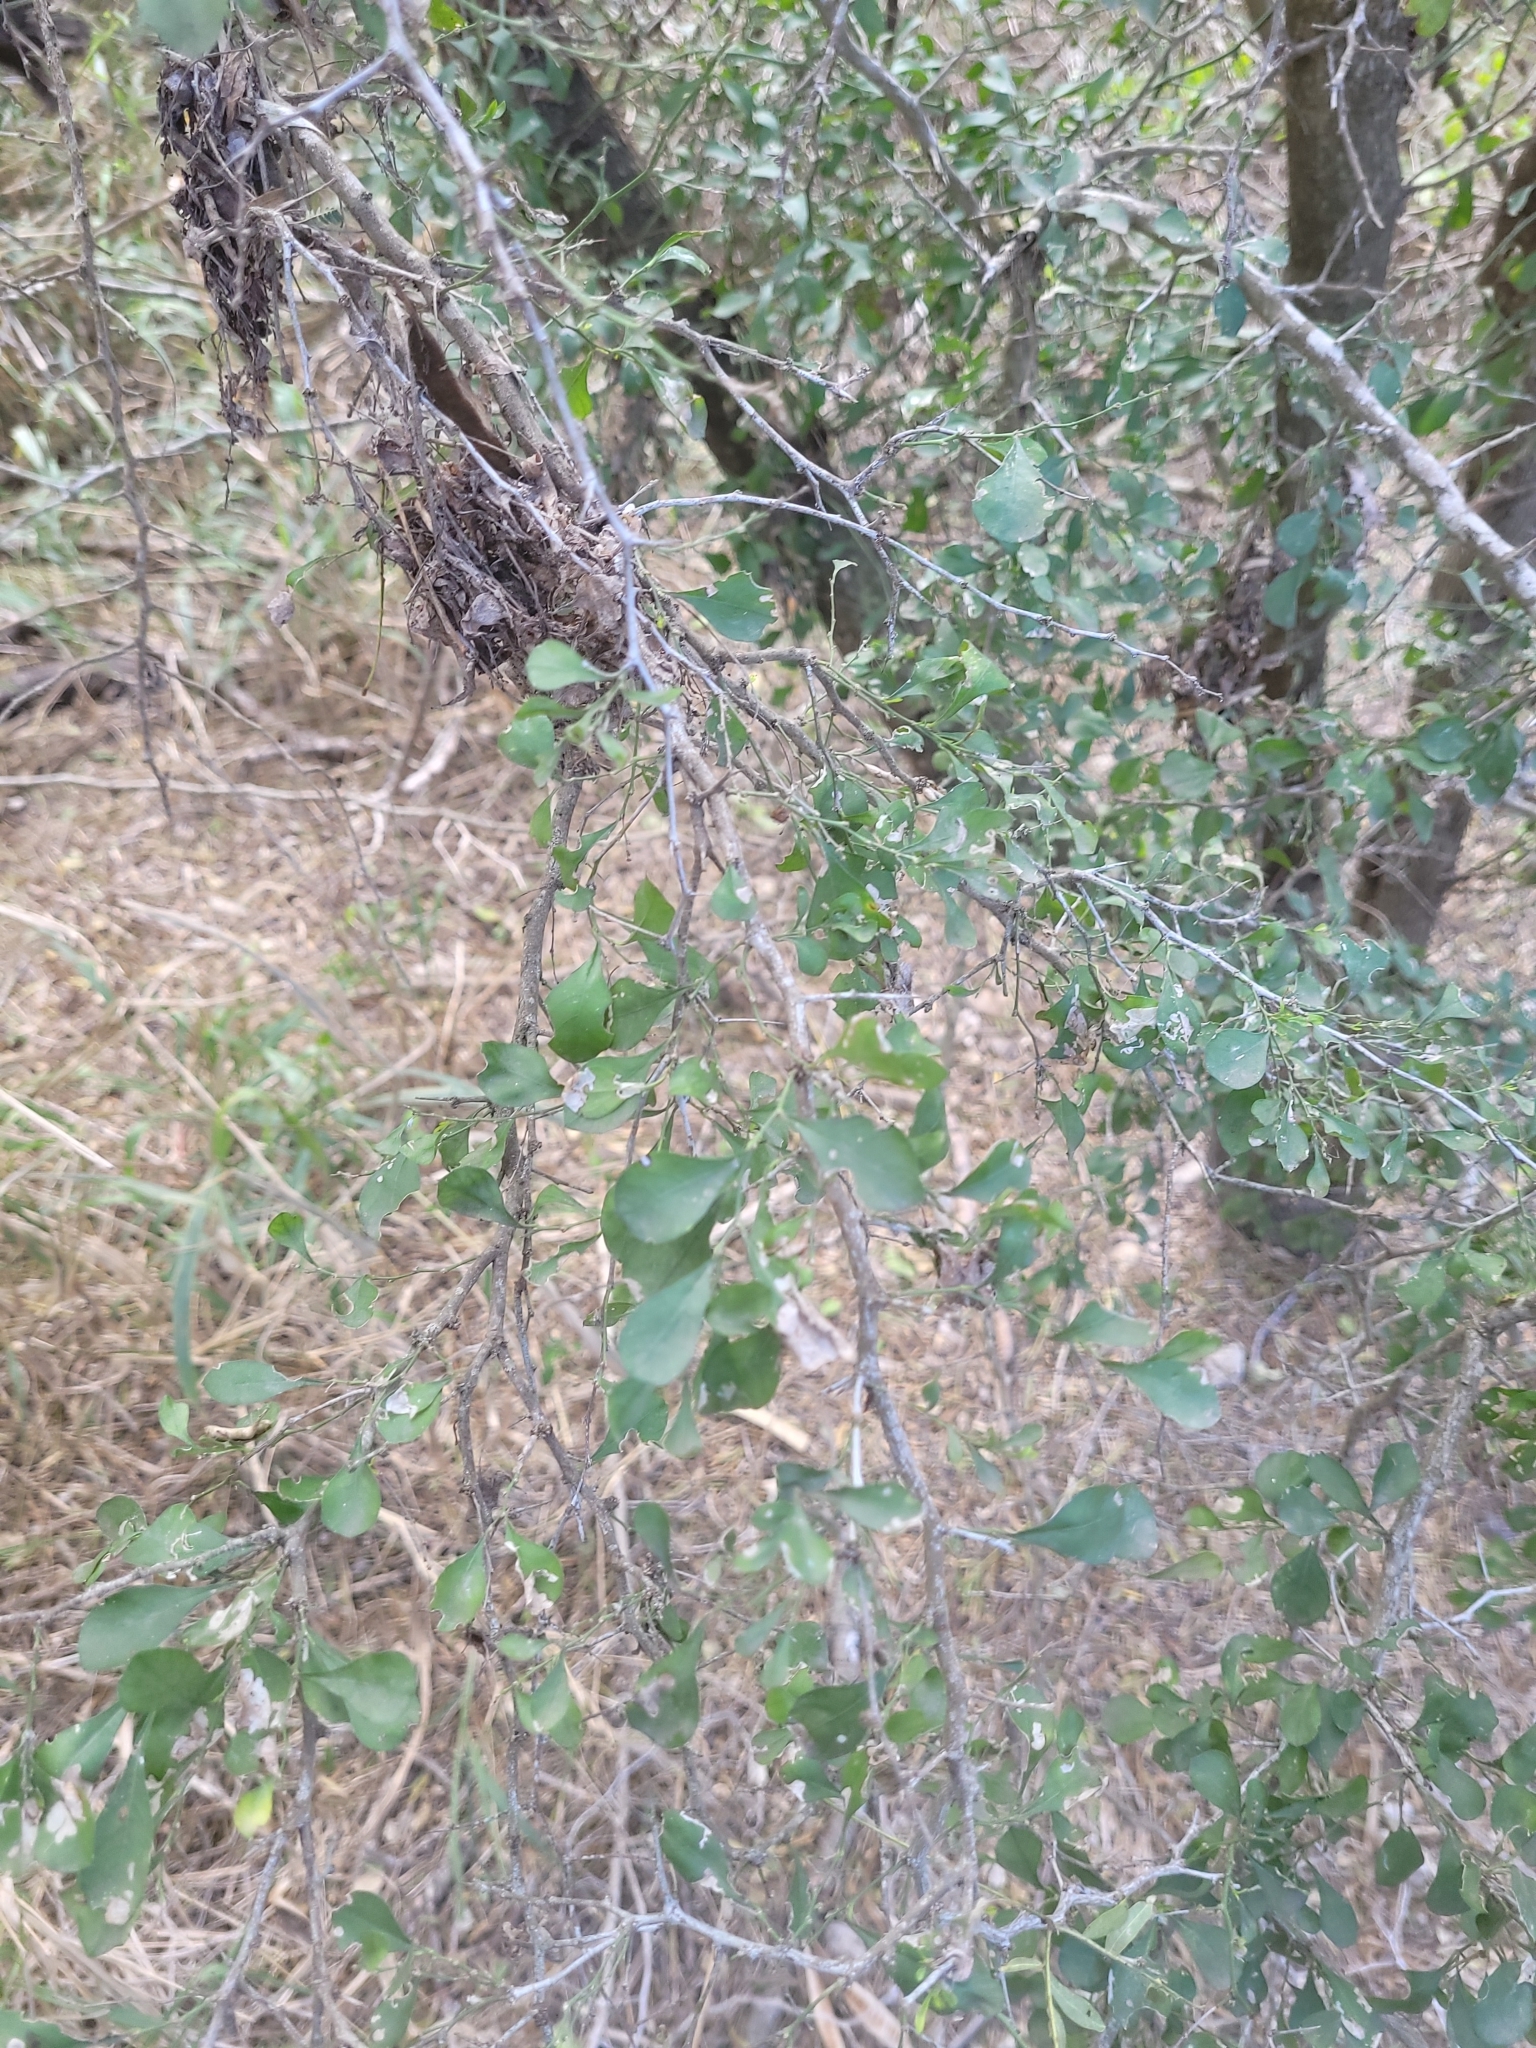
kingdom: Plantae
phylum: Tracheophyta
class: Magnoliopsida
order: Rosales
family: Cannabaceae
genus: Celtis
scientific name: Celtis pallida
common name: Desert hackberry
